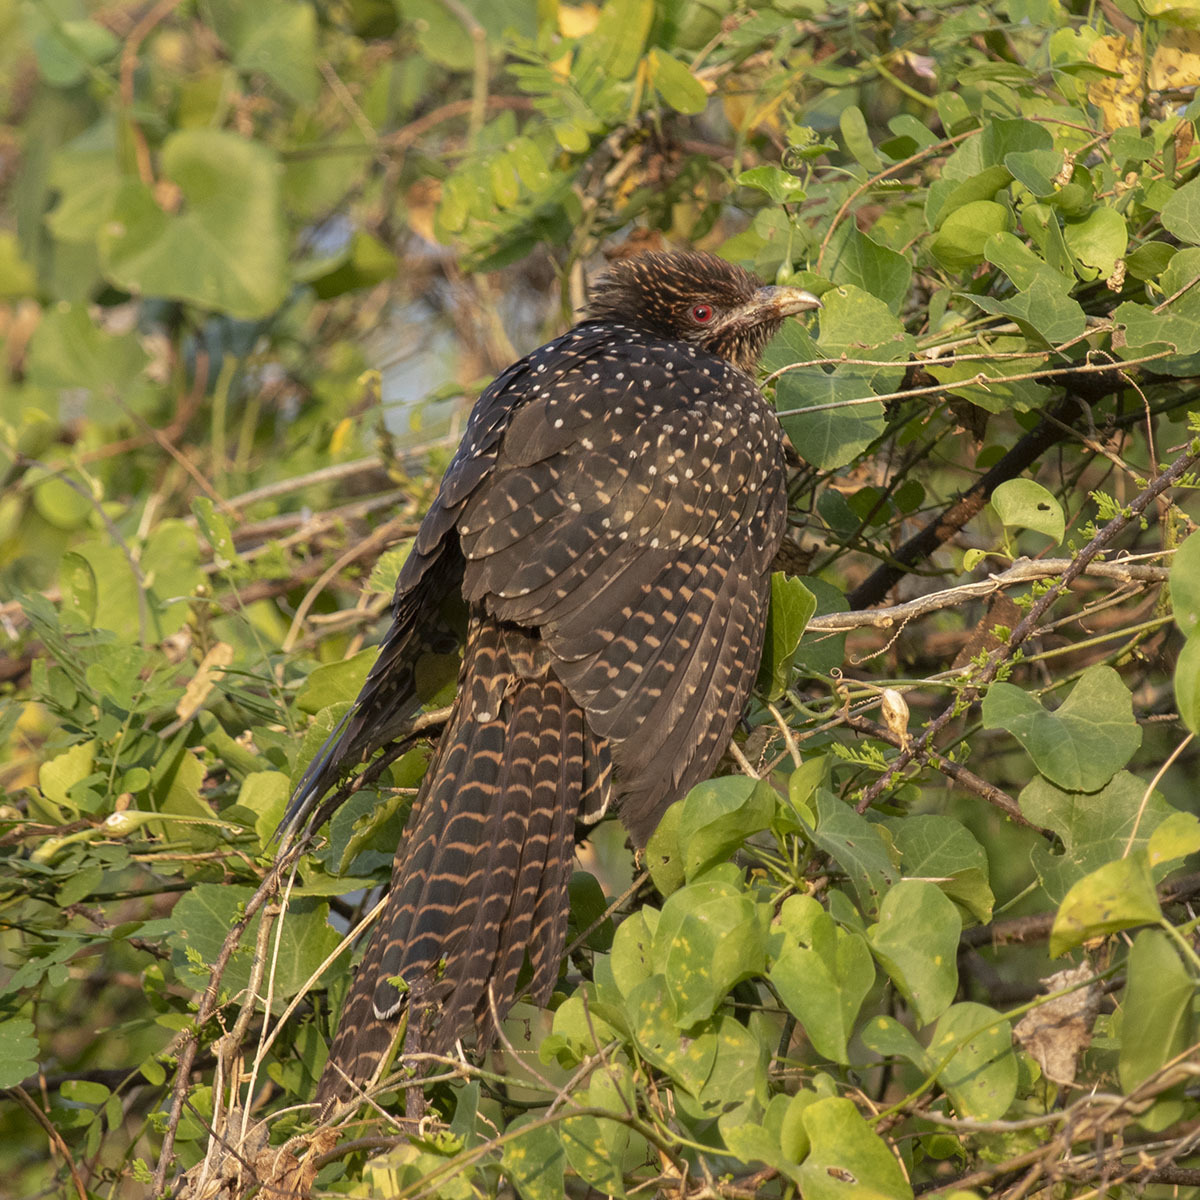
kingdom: Animalia
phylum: Chordata
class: Aves
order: Cuculiformes
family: Cuculidae
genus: Eudynamys
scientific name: Eudynamys scolopaceus
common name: Asian koel
